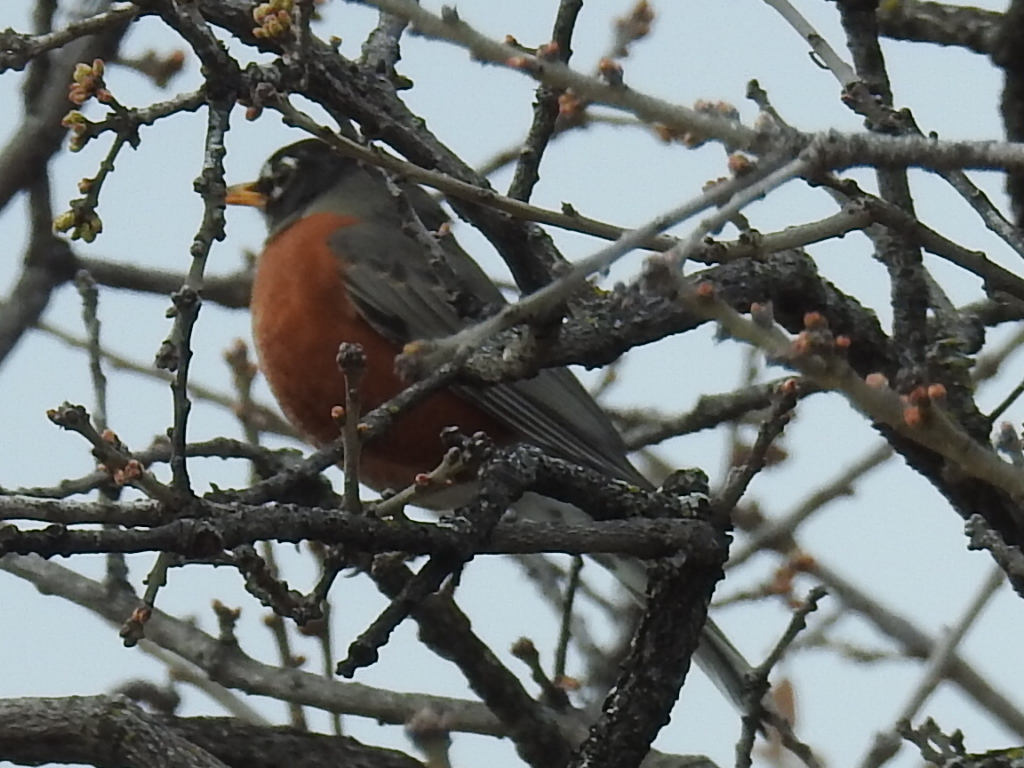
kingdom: Animalia
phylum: Chordata
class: Aves
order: Passeriformes
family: Turdidae
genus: Turdus
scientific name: Turdus migratorius
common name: American robin
